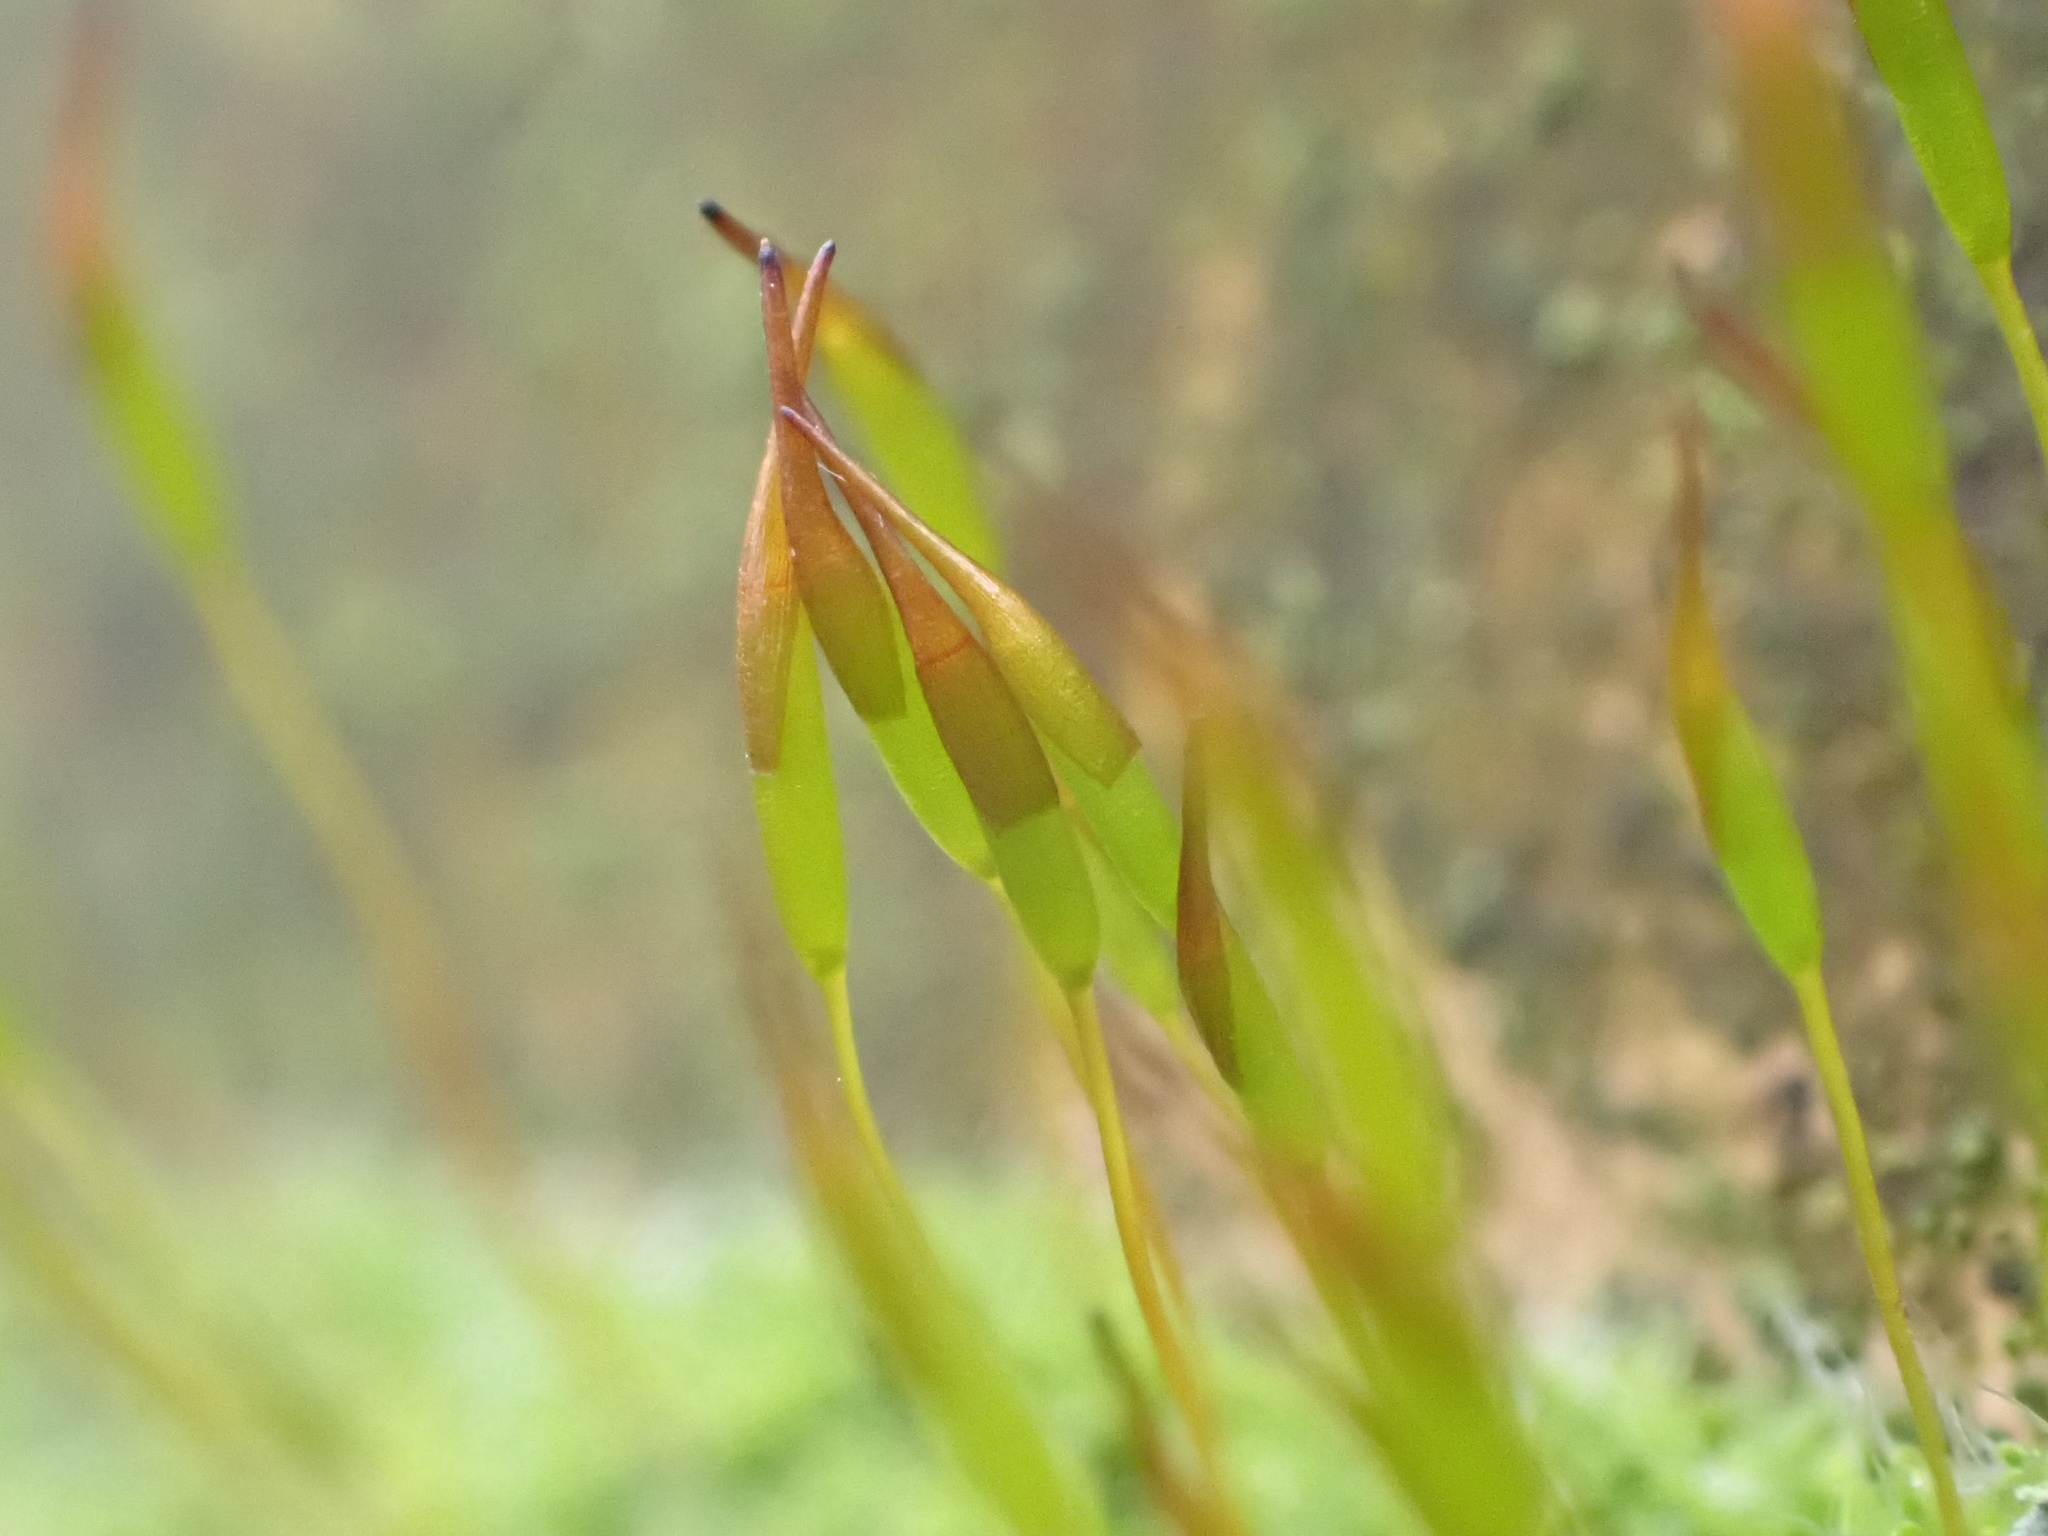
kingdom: Plantae
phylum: Bryophyta
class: Bryopsida
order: Pottiales
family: Pottiaceae
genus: Tortula
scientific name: Tortula muralis
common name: Wall screw-moss
